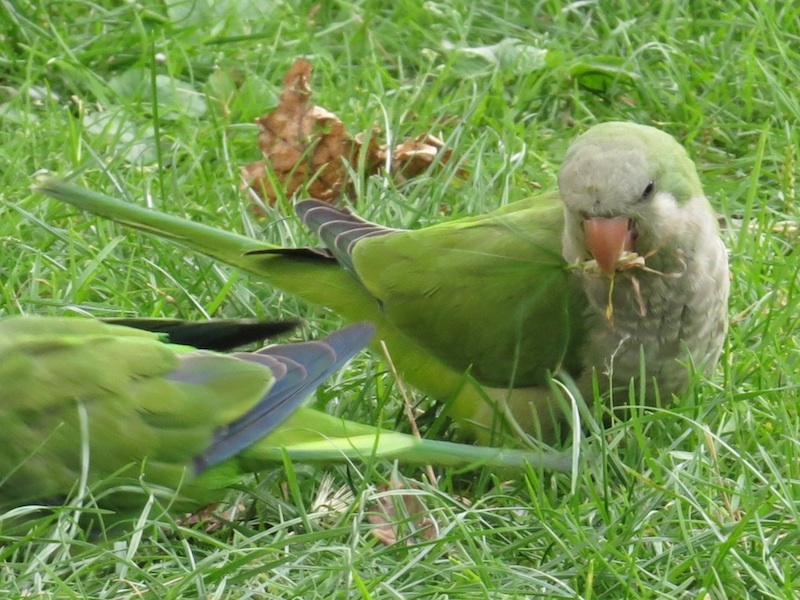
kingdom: Animalia
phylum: Chordata
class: Aves
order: Psittaciformes
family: Psittacidae
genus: Myiopsitta
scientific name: Myiopsitta monachus
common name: Monk parakeet
